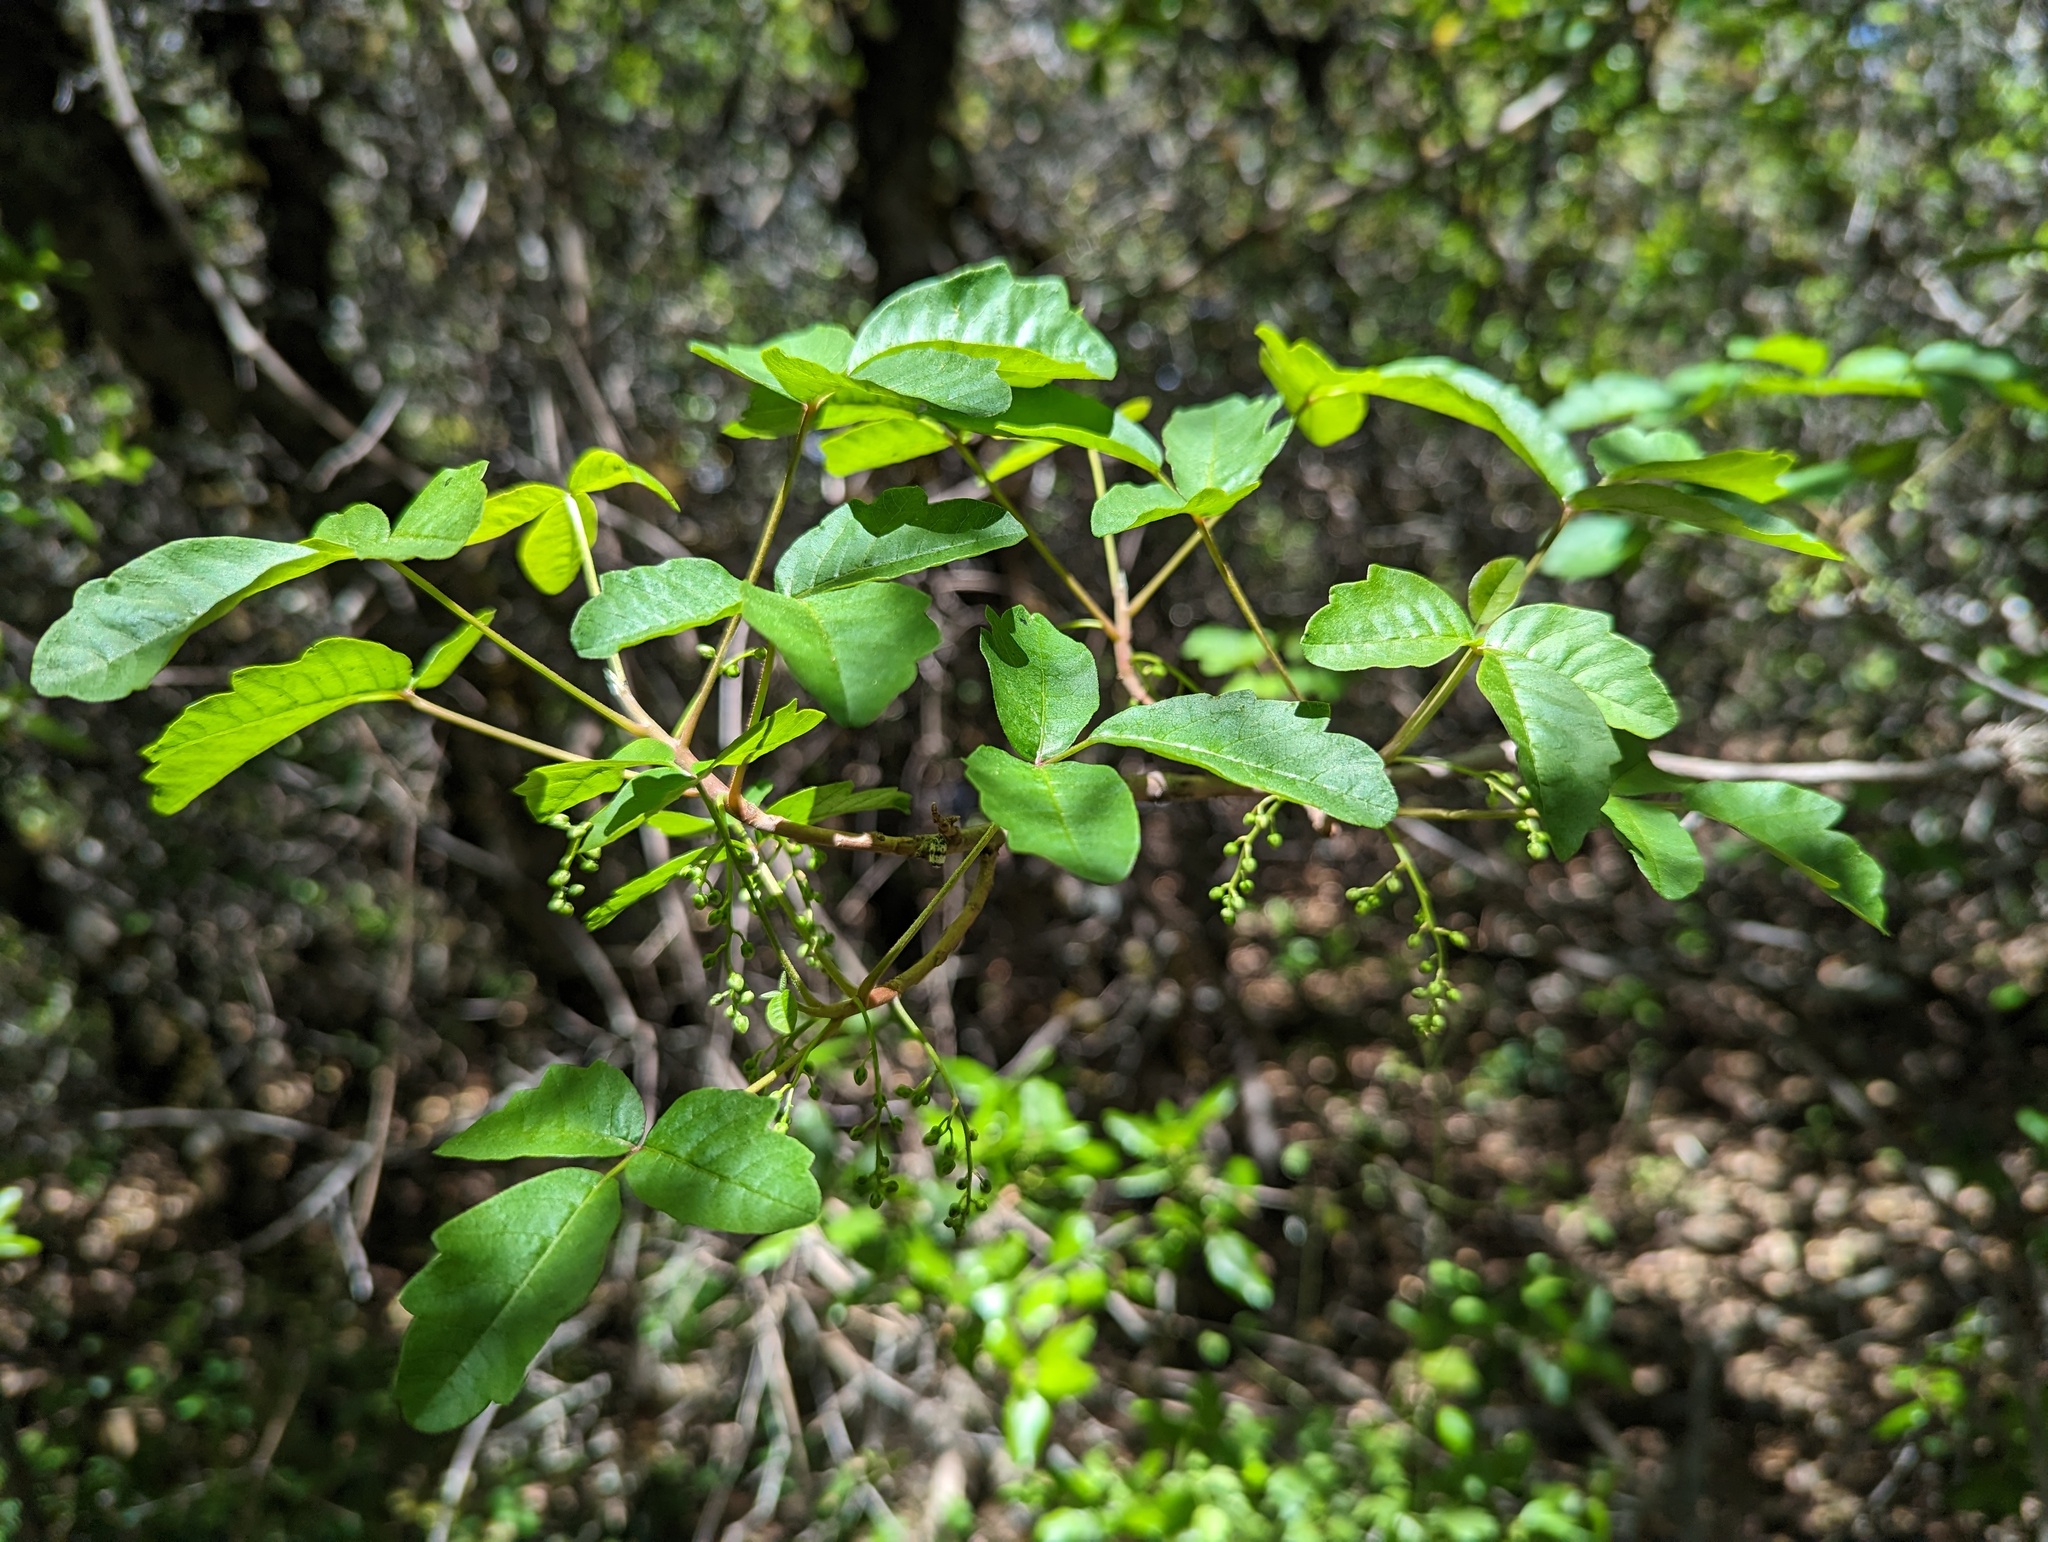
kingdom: Plantae
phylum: Tracheophyta
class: Magnoliopsida
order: Sapindales
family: Anacardiaceae
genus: Toxicodendron
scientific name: Toxicodendron diversilobum
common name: Pacific poison-oak
